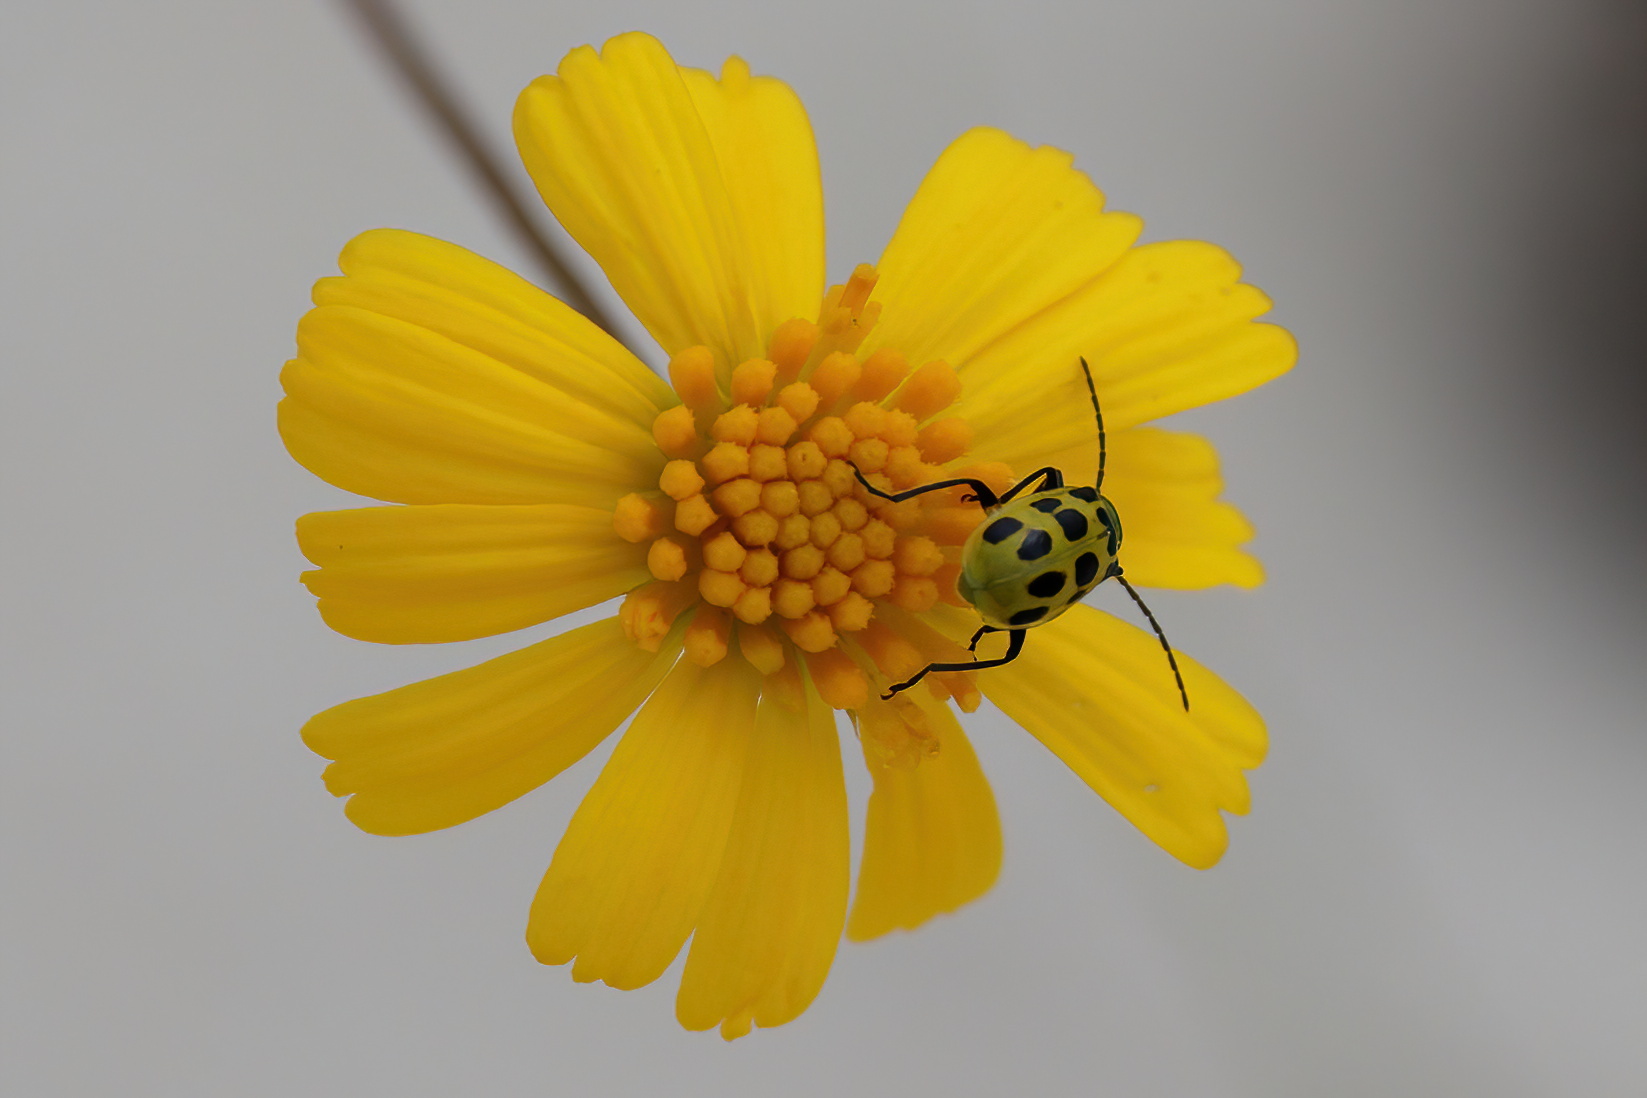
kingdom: Animalia
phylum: Arthropoda
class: Insecta
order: Coleoptera
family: Chrysomelidae
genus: Diabrotica
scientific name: Diabrotica undecimpunctata
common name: Spotted cucumber beetle
